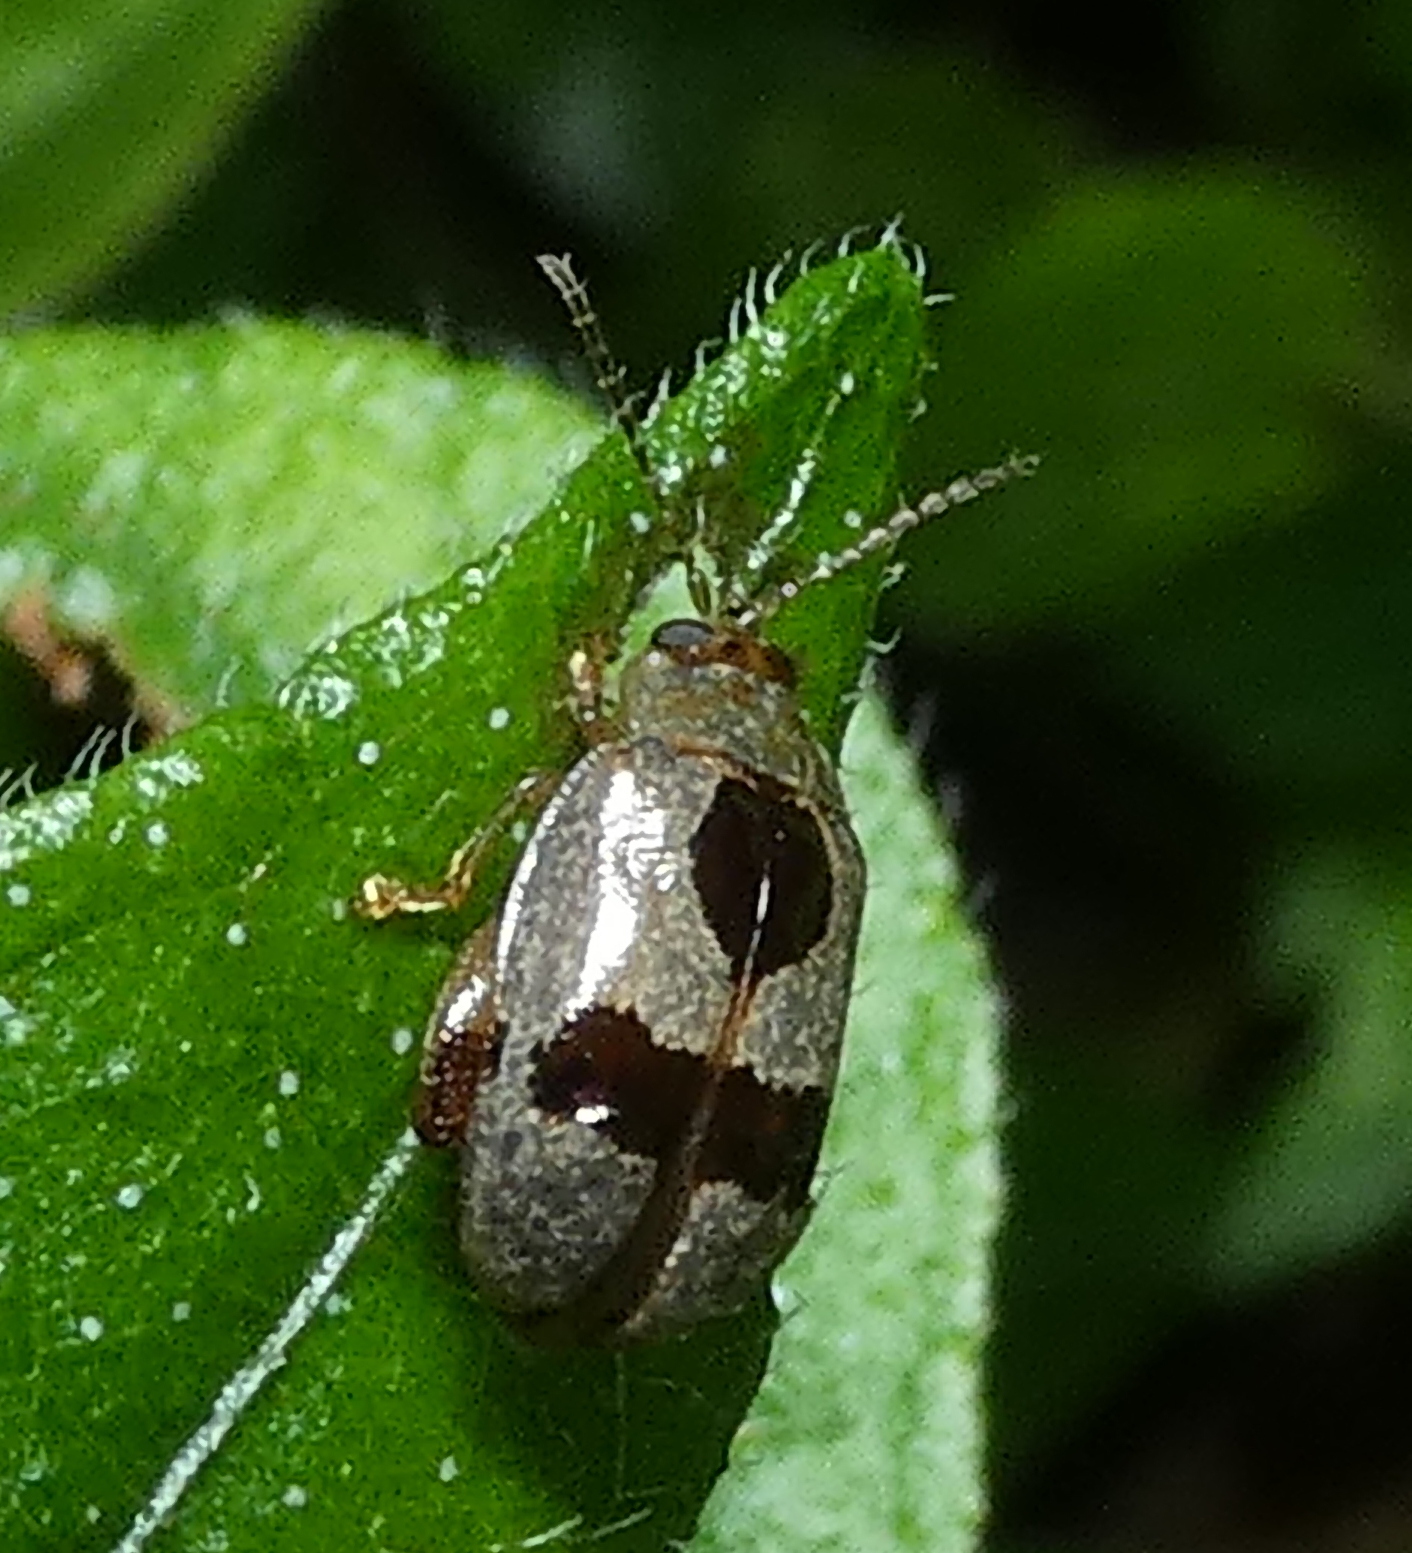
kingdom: Animalia
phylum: Arthropoda
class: Insecta
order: Coleoptera
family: Chrysomelidae
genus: Alagoasa
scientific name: Alagoasa
